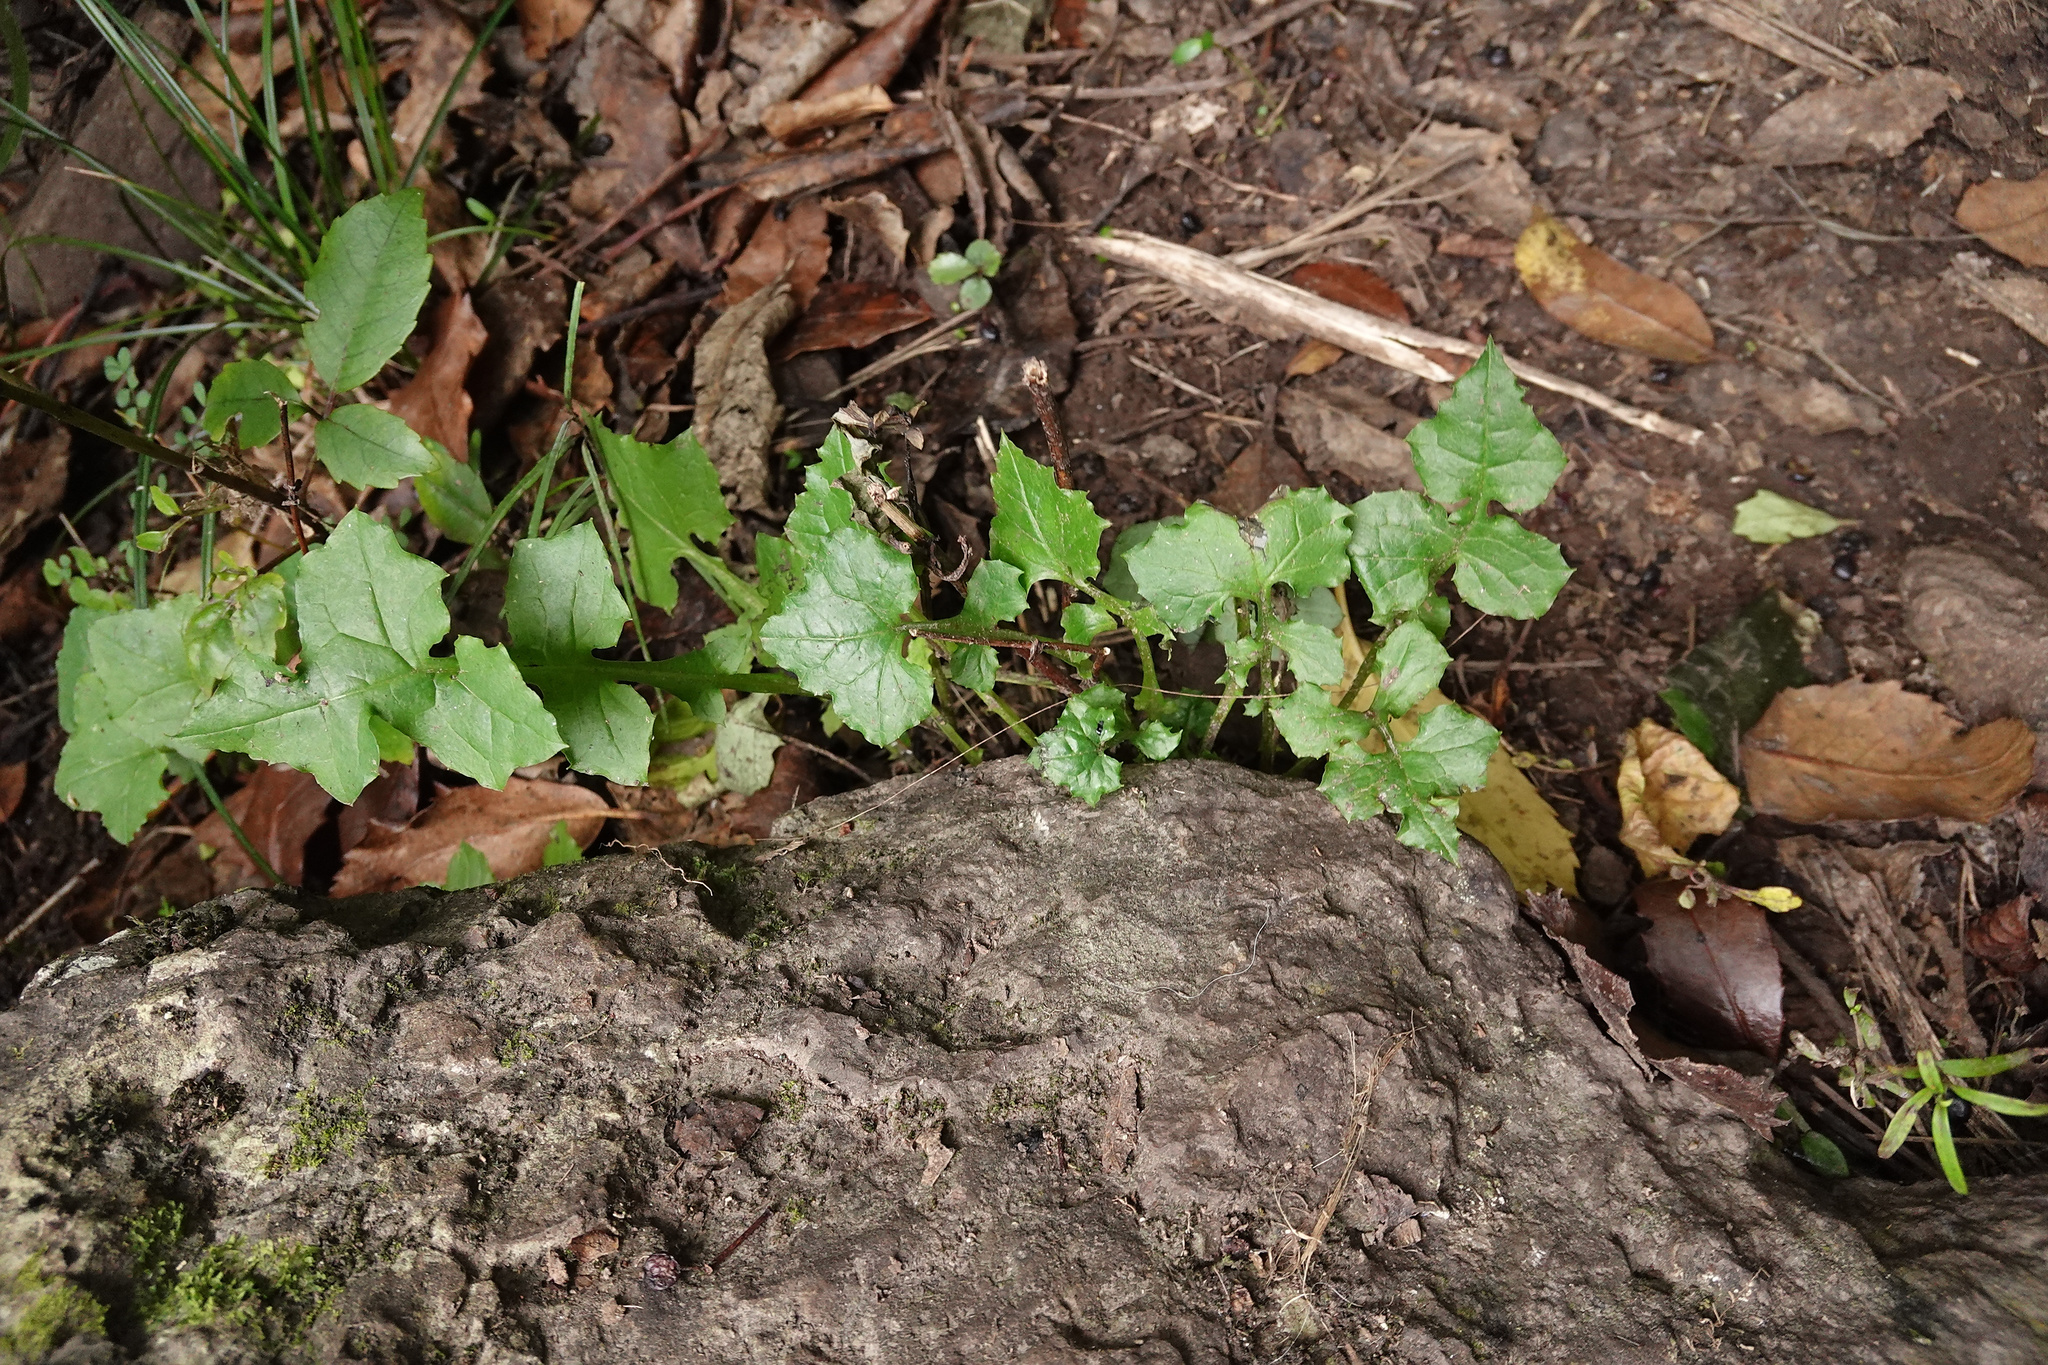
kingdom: Plantae
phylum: Tracheophyta
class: Magnoliopsida
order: Asterales
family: Asteraceae
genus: Mycelis
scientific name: Mycelis muralis
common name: Wall lettuce
